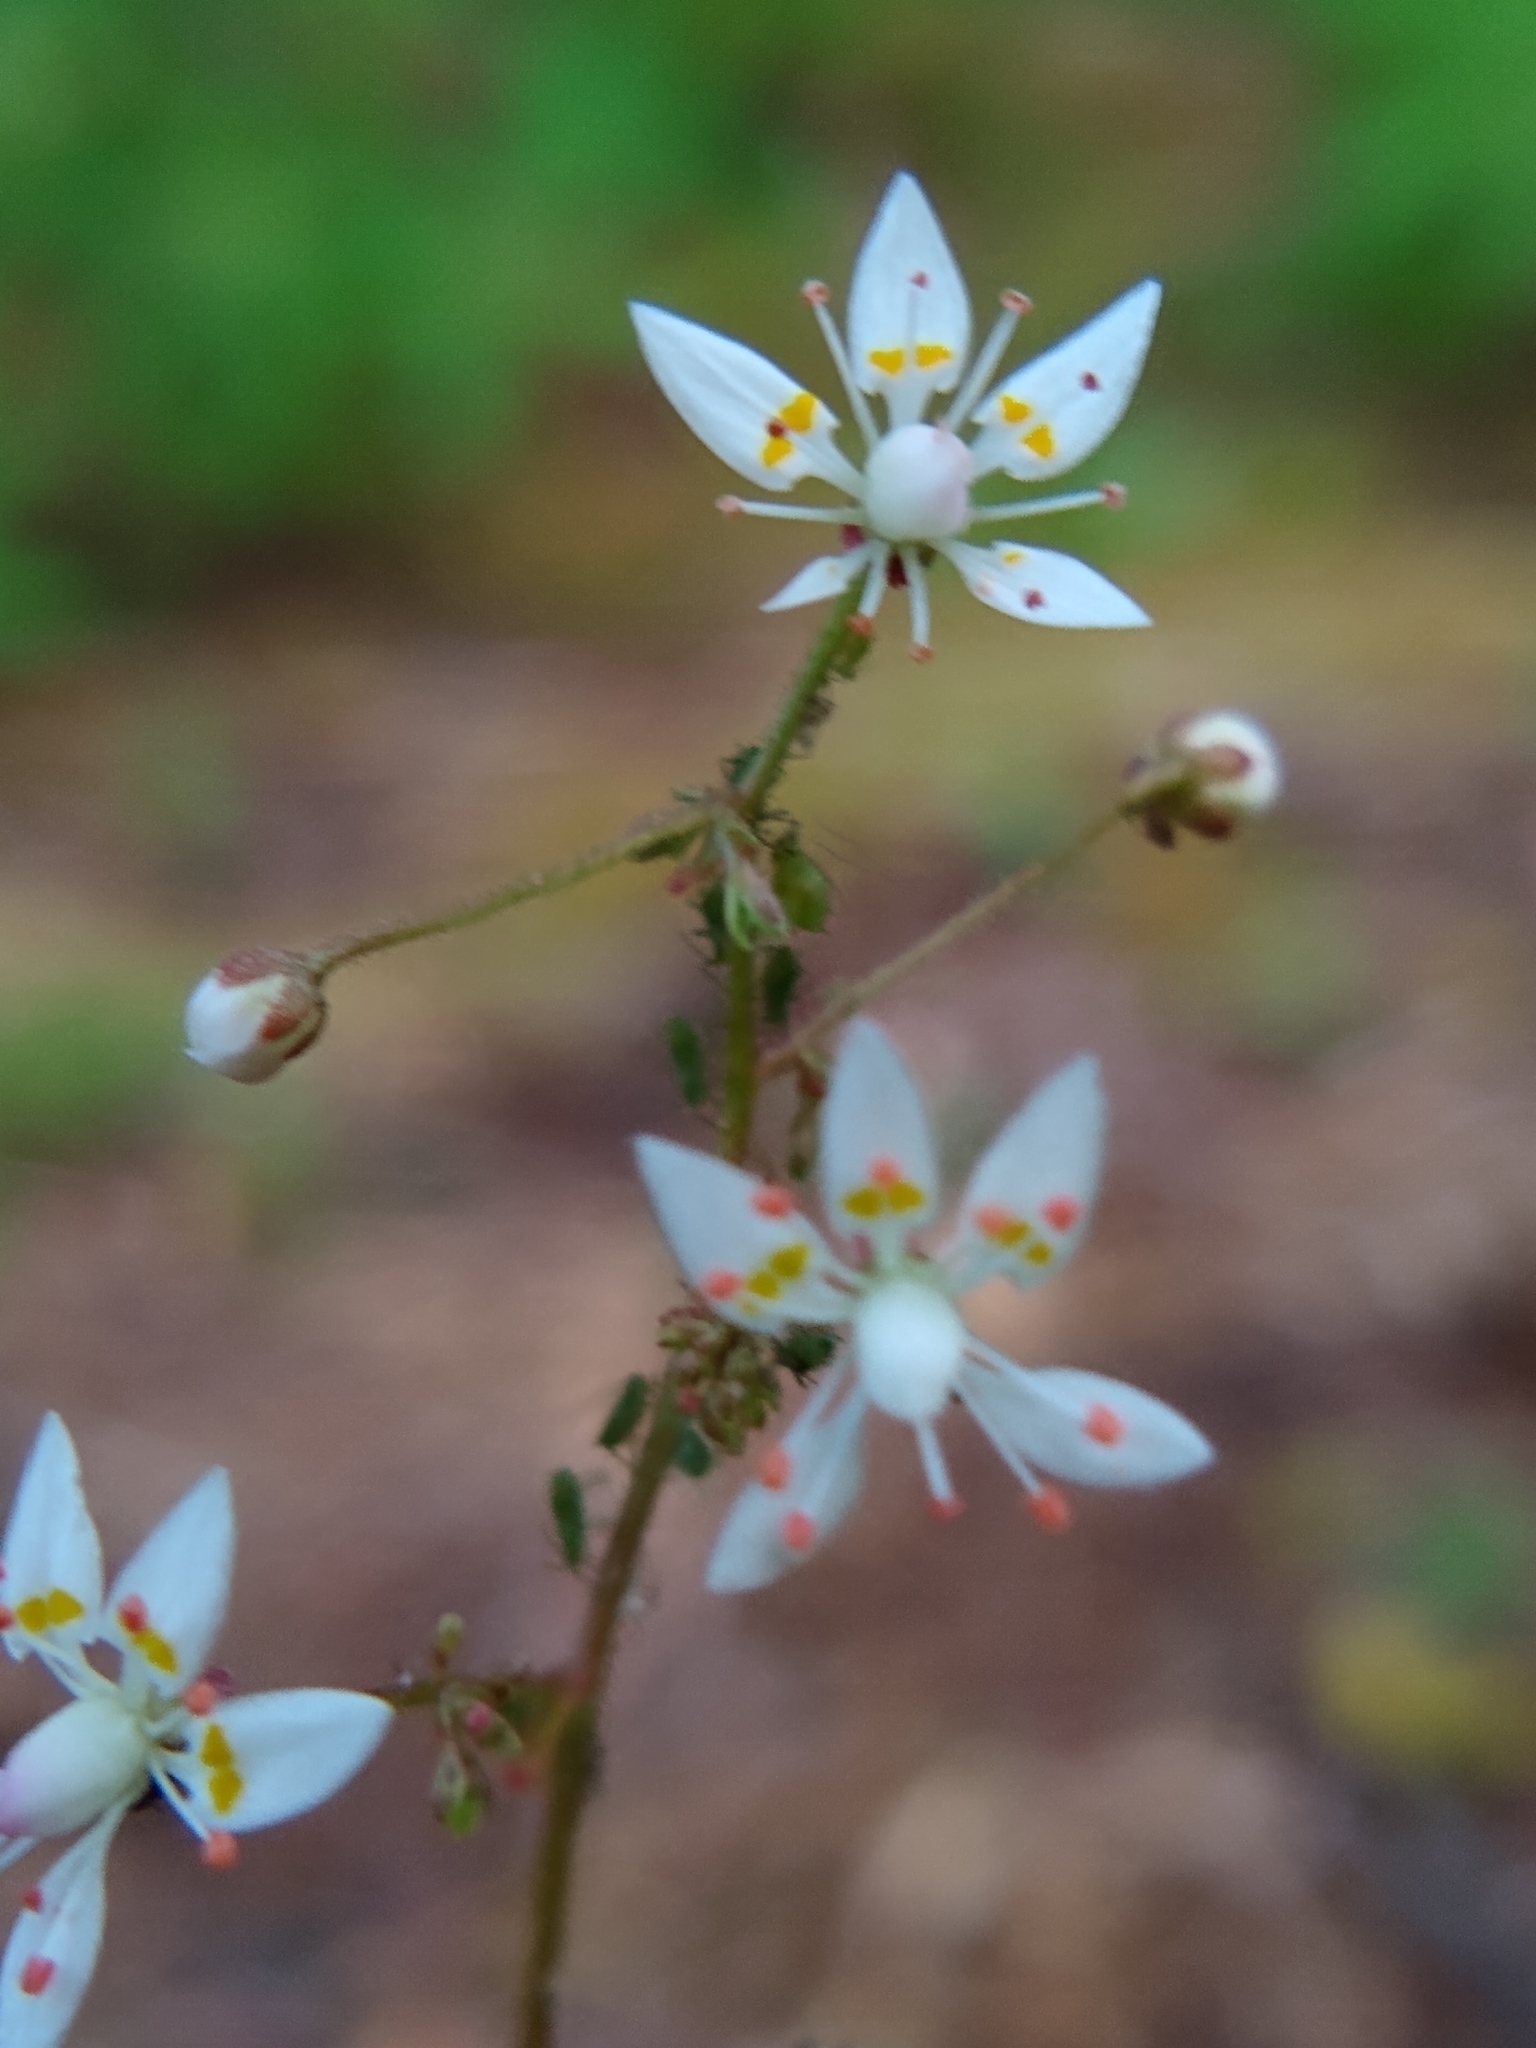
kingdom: Plantae
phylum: Tracheophyta
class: Magnoliopsida
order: Saxifragales
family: Saxifragaceae
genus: Micranthes
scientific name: Micranthes ferruginea
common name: Rusty saxifrage
